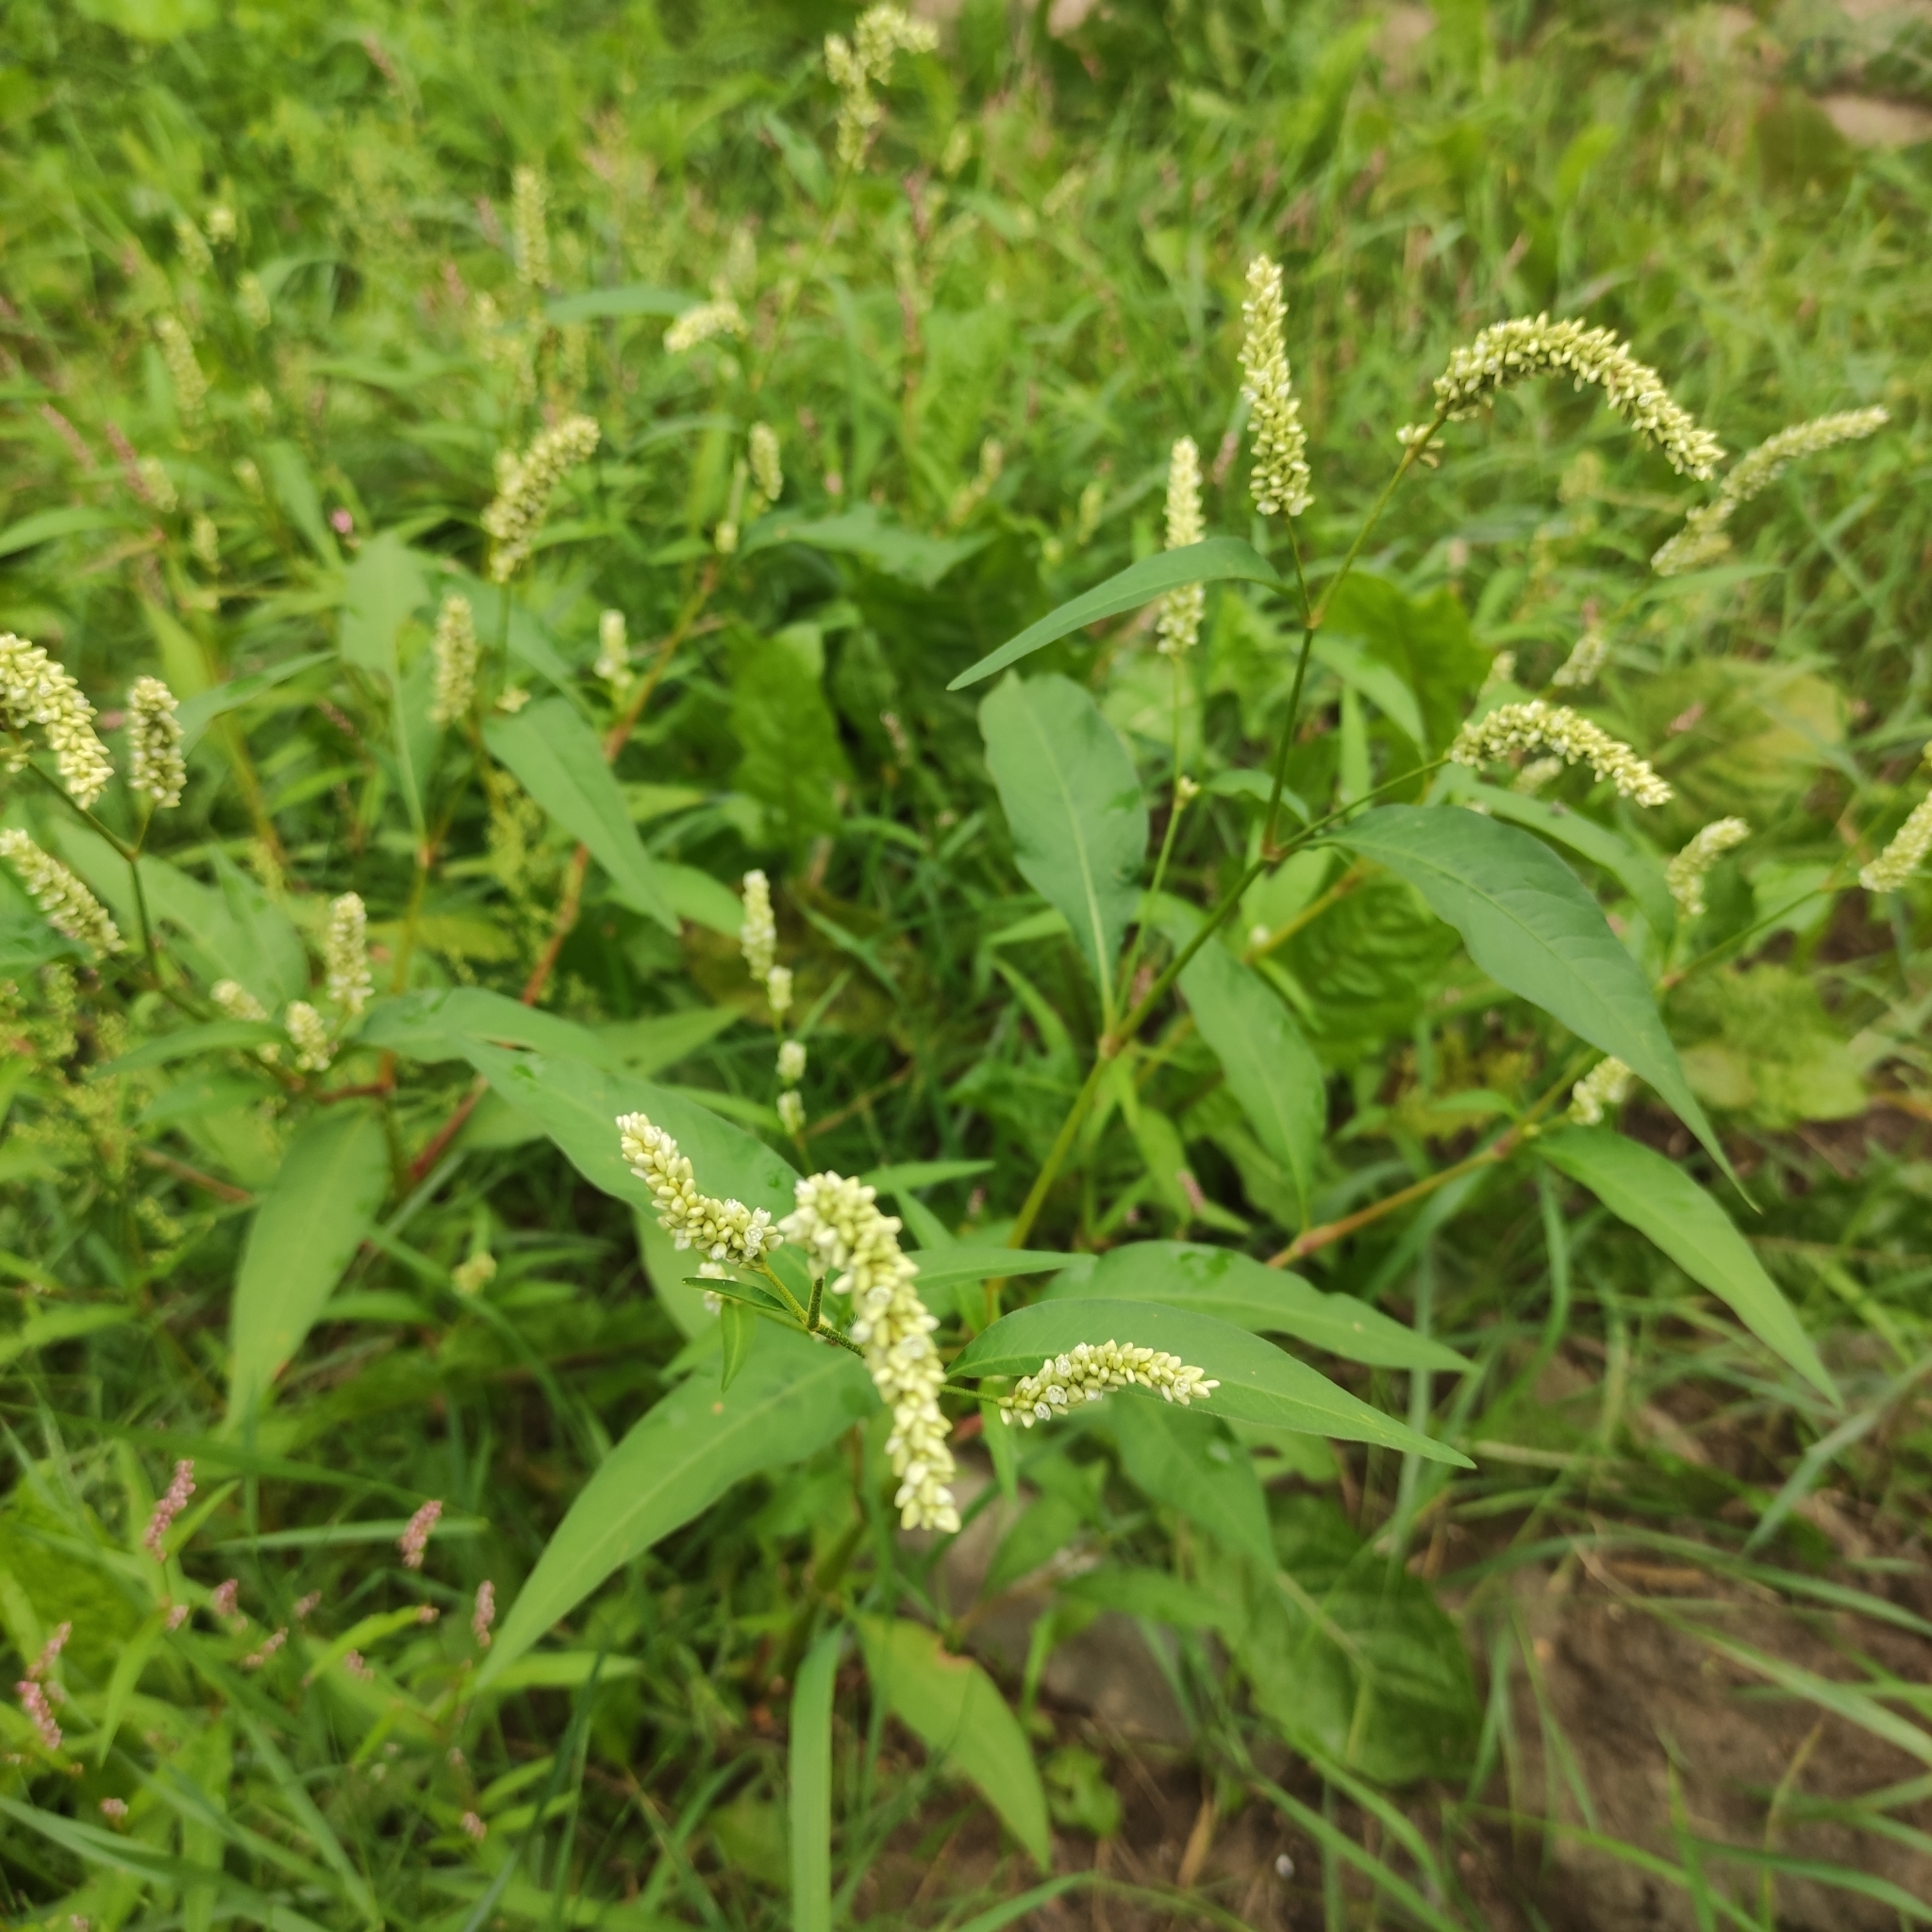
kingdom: Plantae
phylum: Tracheophyta
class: Magnoliopsida
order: Caryophyllales
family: Polygonaceae
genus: Persicaria
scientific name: Persicaria lapathifolia
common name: Curlytop knotweed
